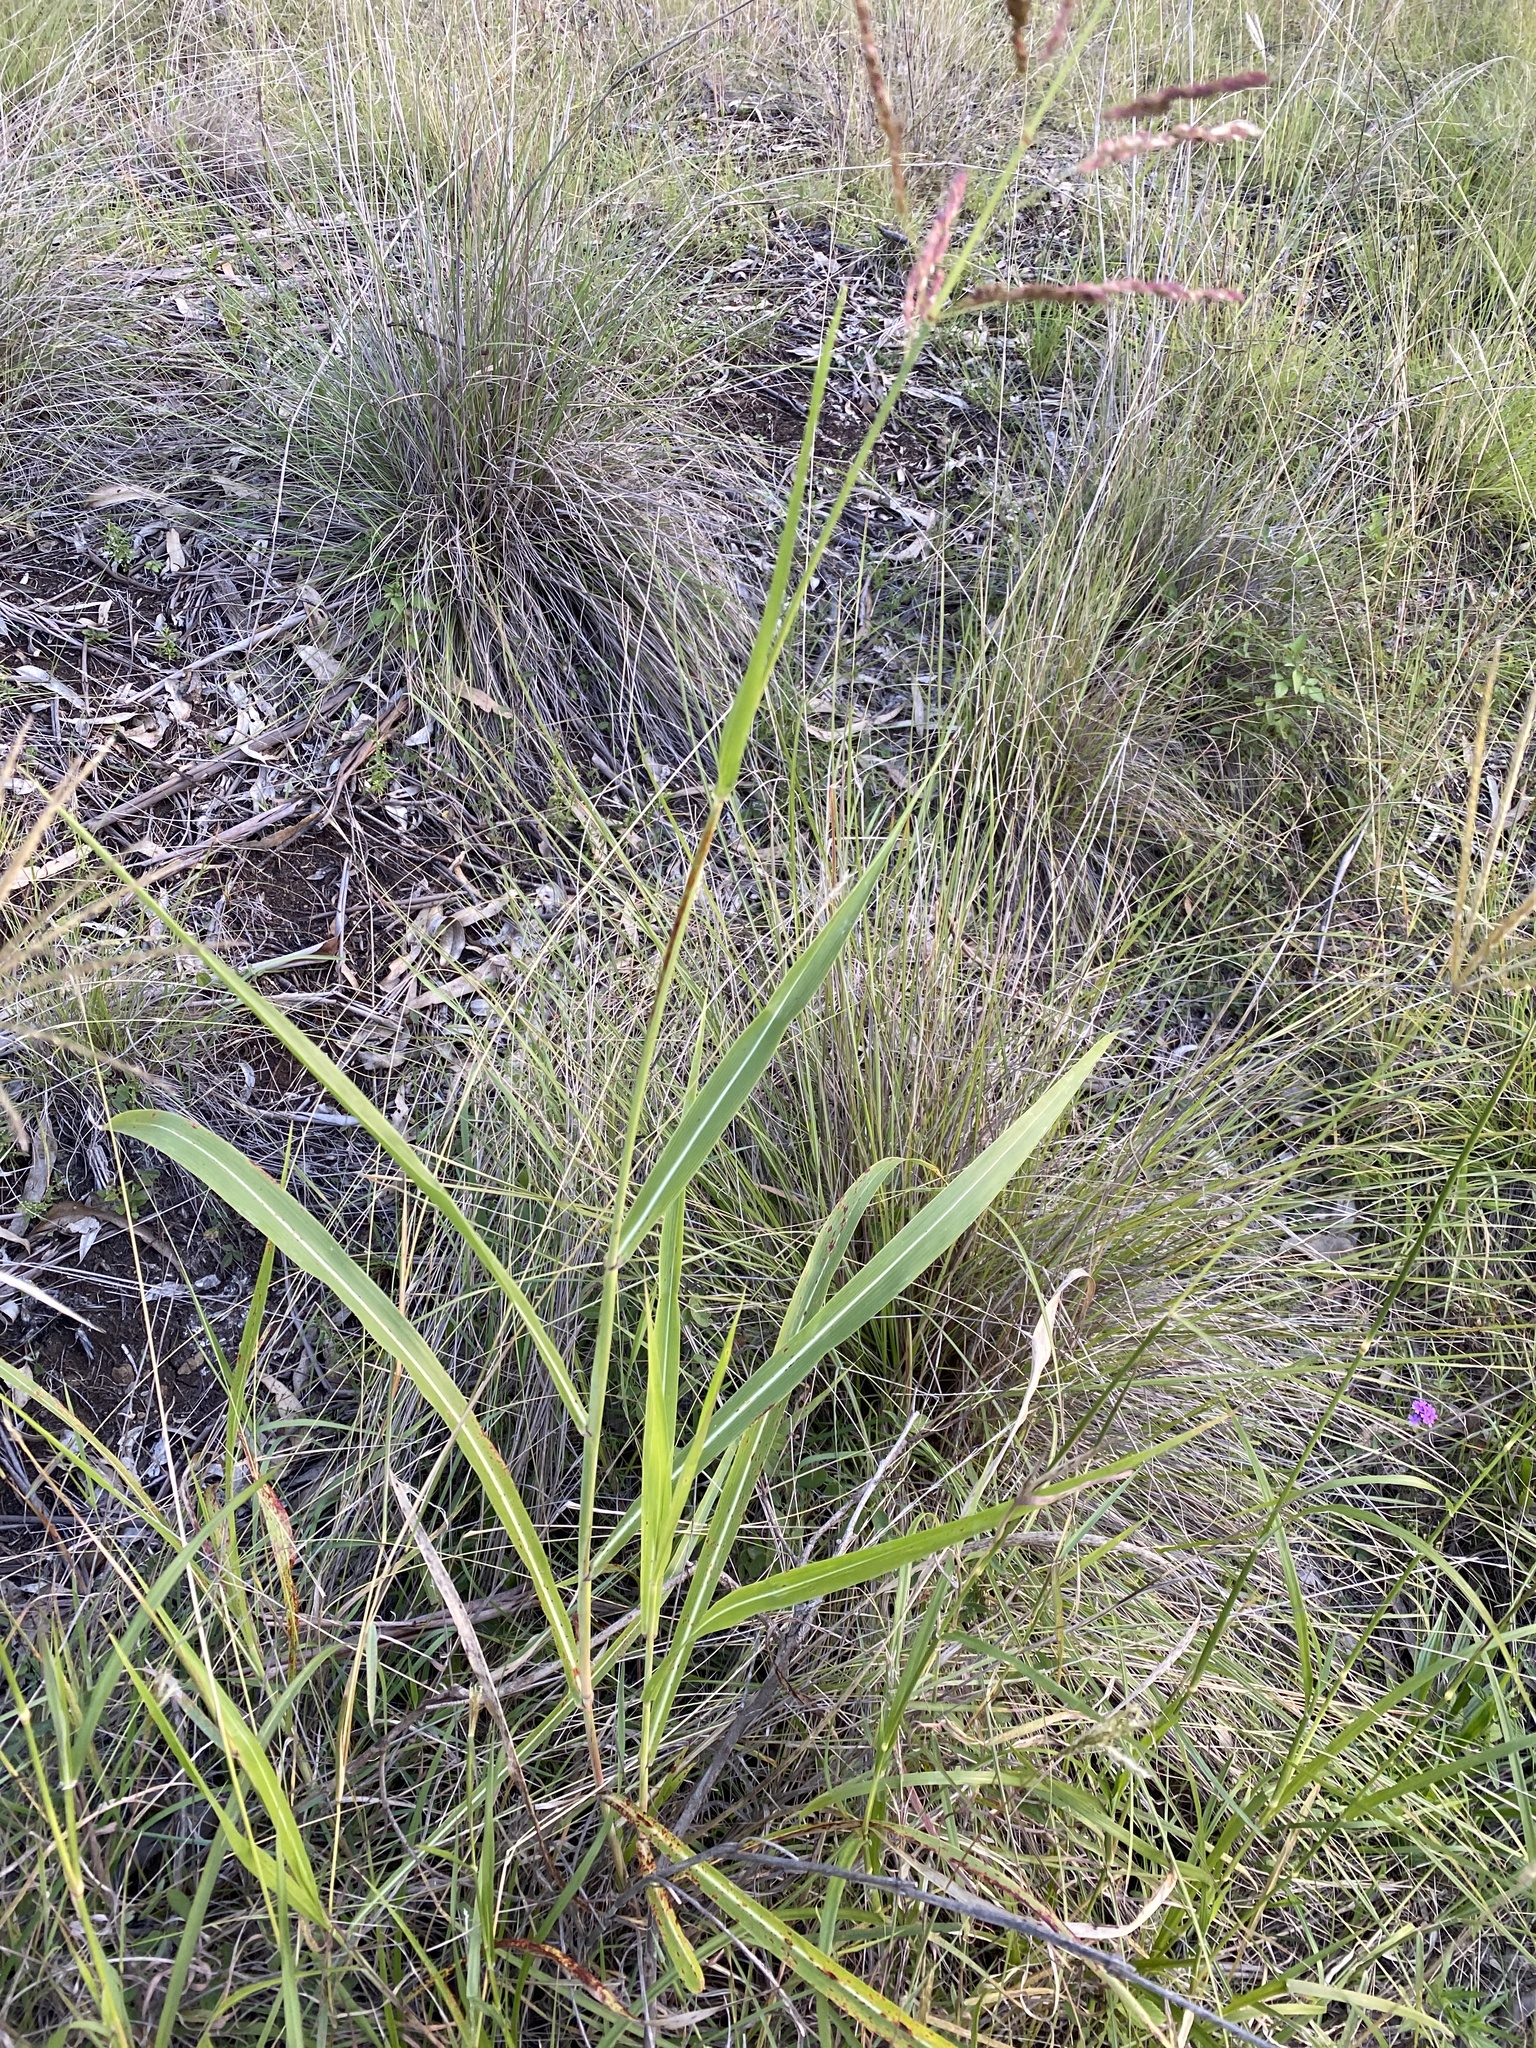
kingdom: Plantae
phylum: Tracheophyta
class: Liliopsida
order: Poales
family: Poaceae
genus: Sorghum
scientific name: Sorghum halepense
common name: Johnson-grass
